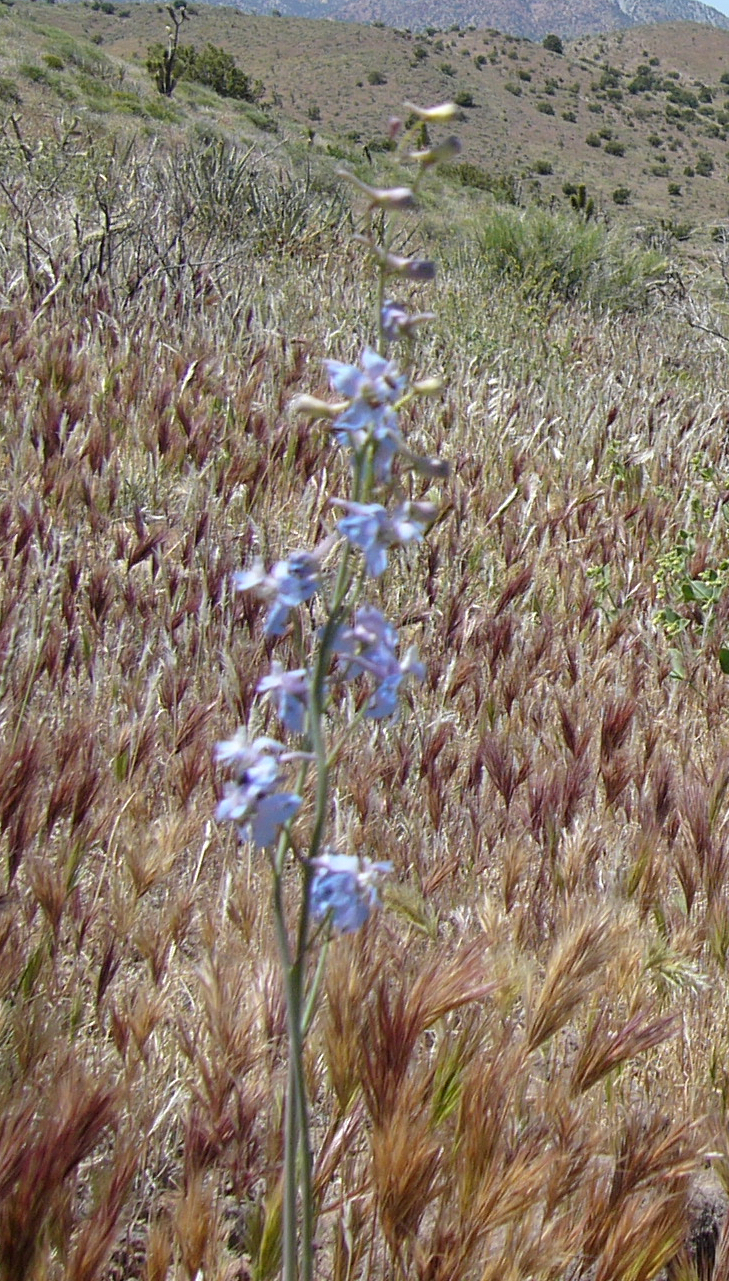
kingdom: Plantae
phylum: Tracheophyta
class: Magnoliopsida
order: Ranunculales
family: Ranunculaceae
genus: Delphinium
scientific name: Delphinium parishii
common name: Apache larkspur
